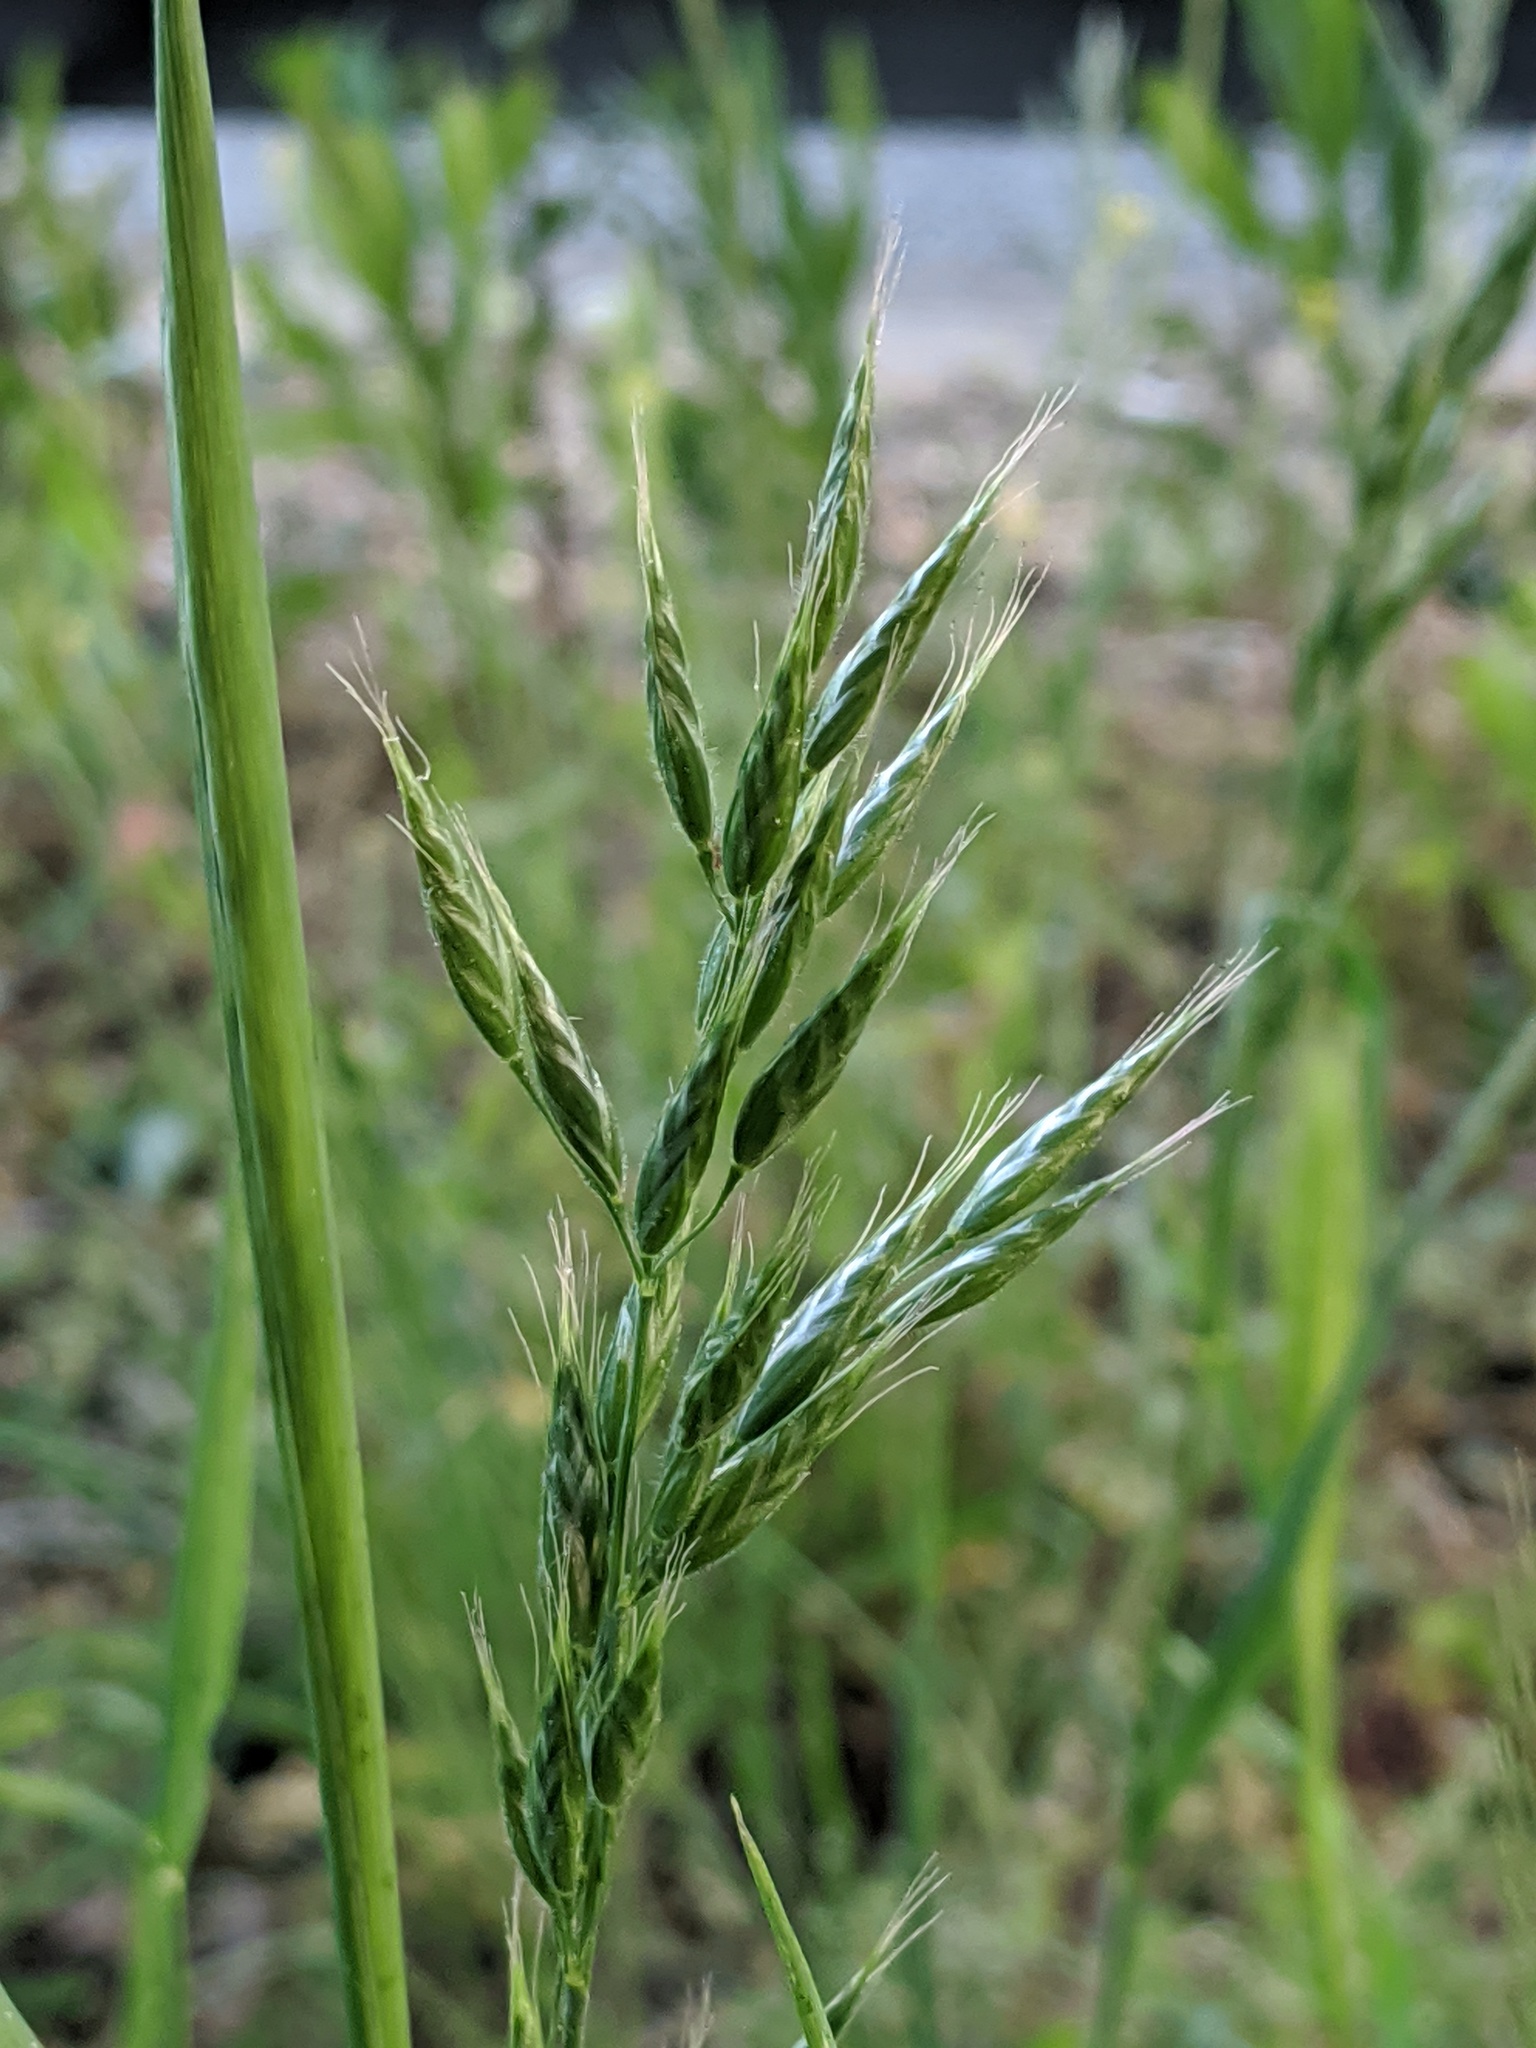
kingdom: Plantae
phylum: Tracheophyta
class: Liliopsida
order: Poales
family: Poaceae
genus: Bromus
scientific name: Bromus hordeaceus
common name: Soft brome
